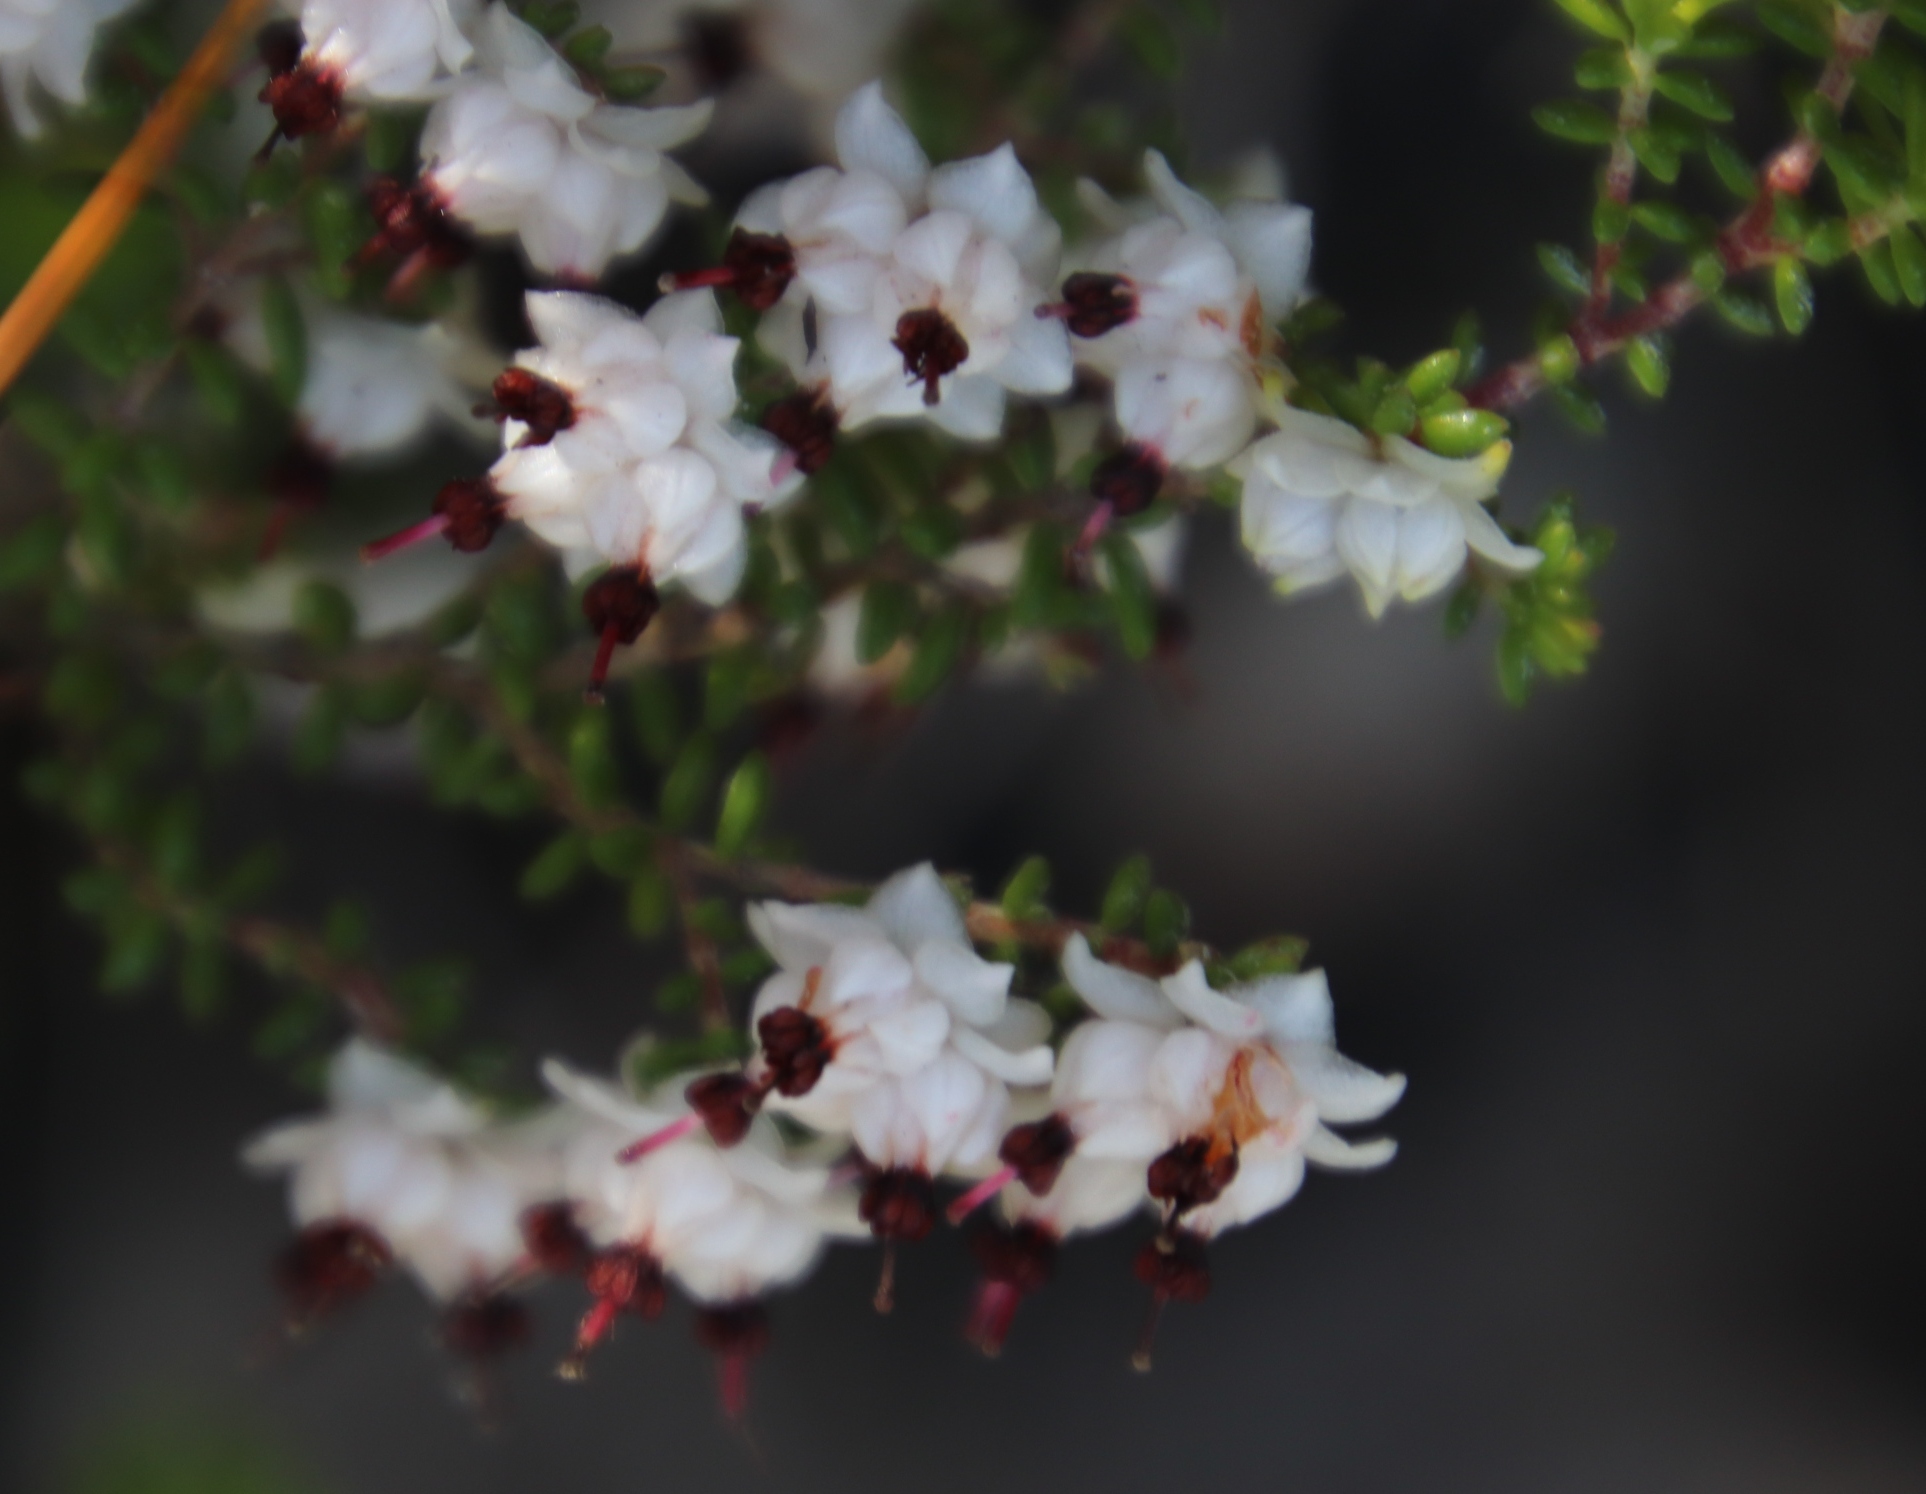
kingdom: Plantae
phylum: Tracheophyta
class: Magnoliopsida
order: Ericales
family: Ericaceae
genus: Erica
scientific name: Erica azaleifolia
